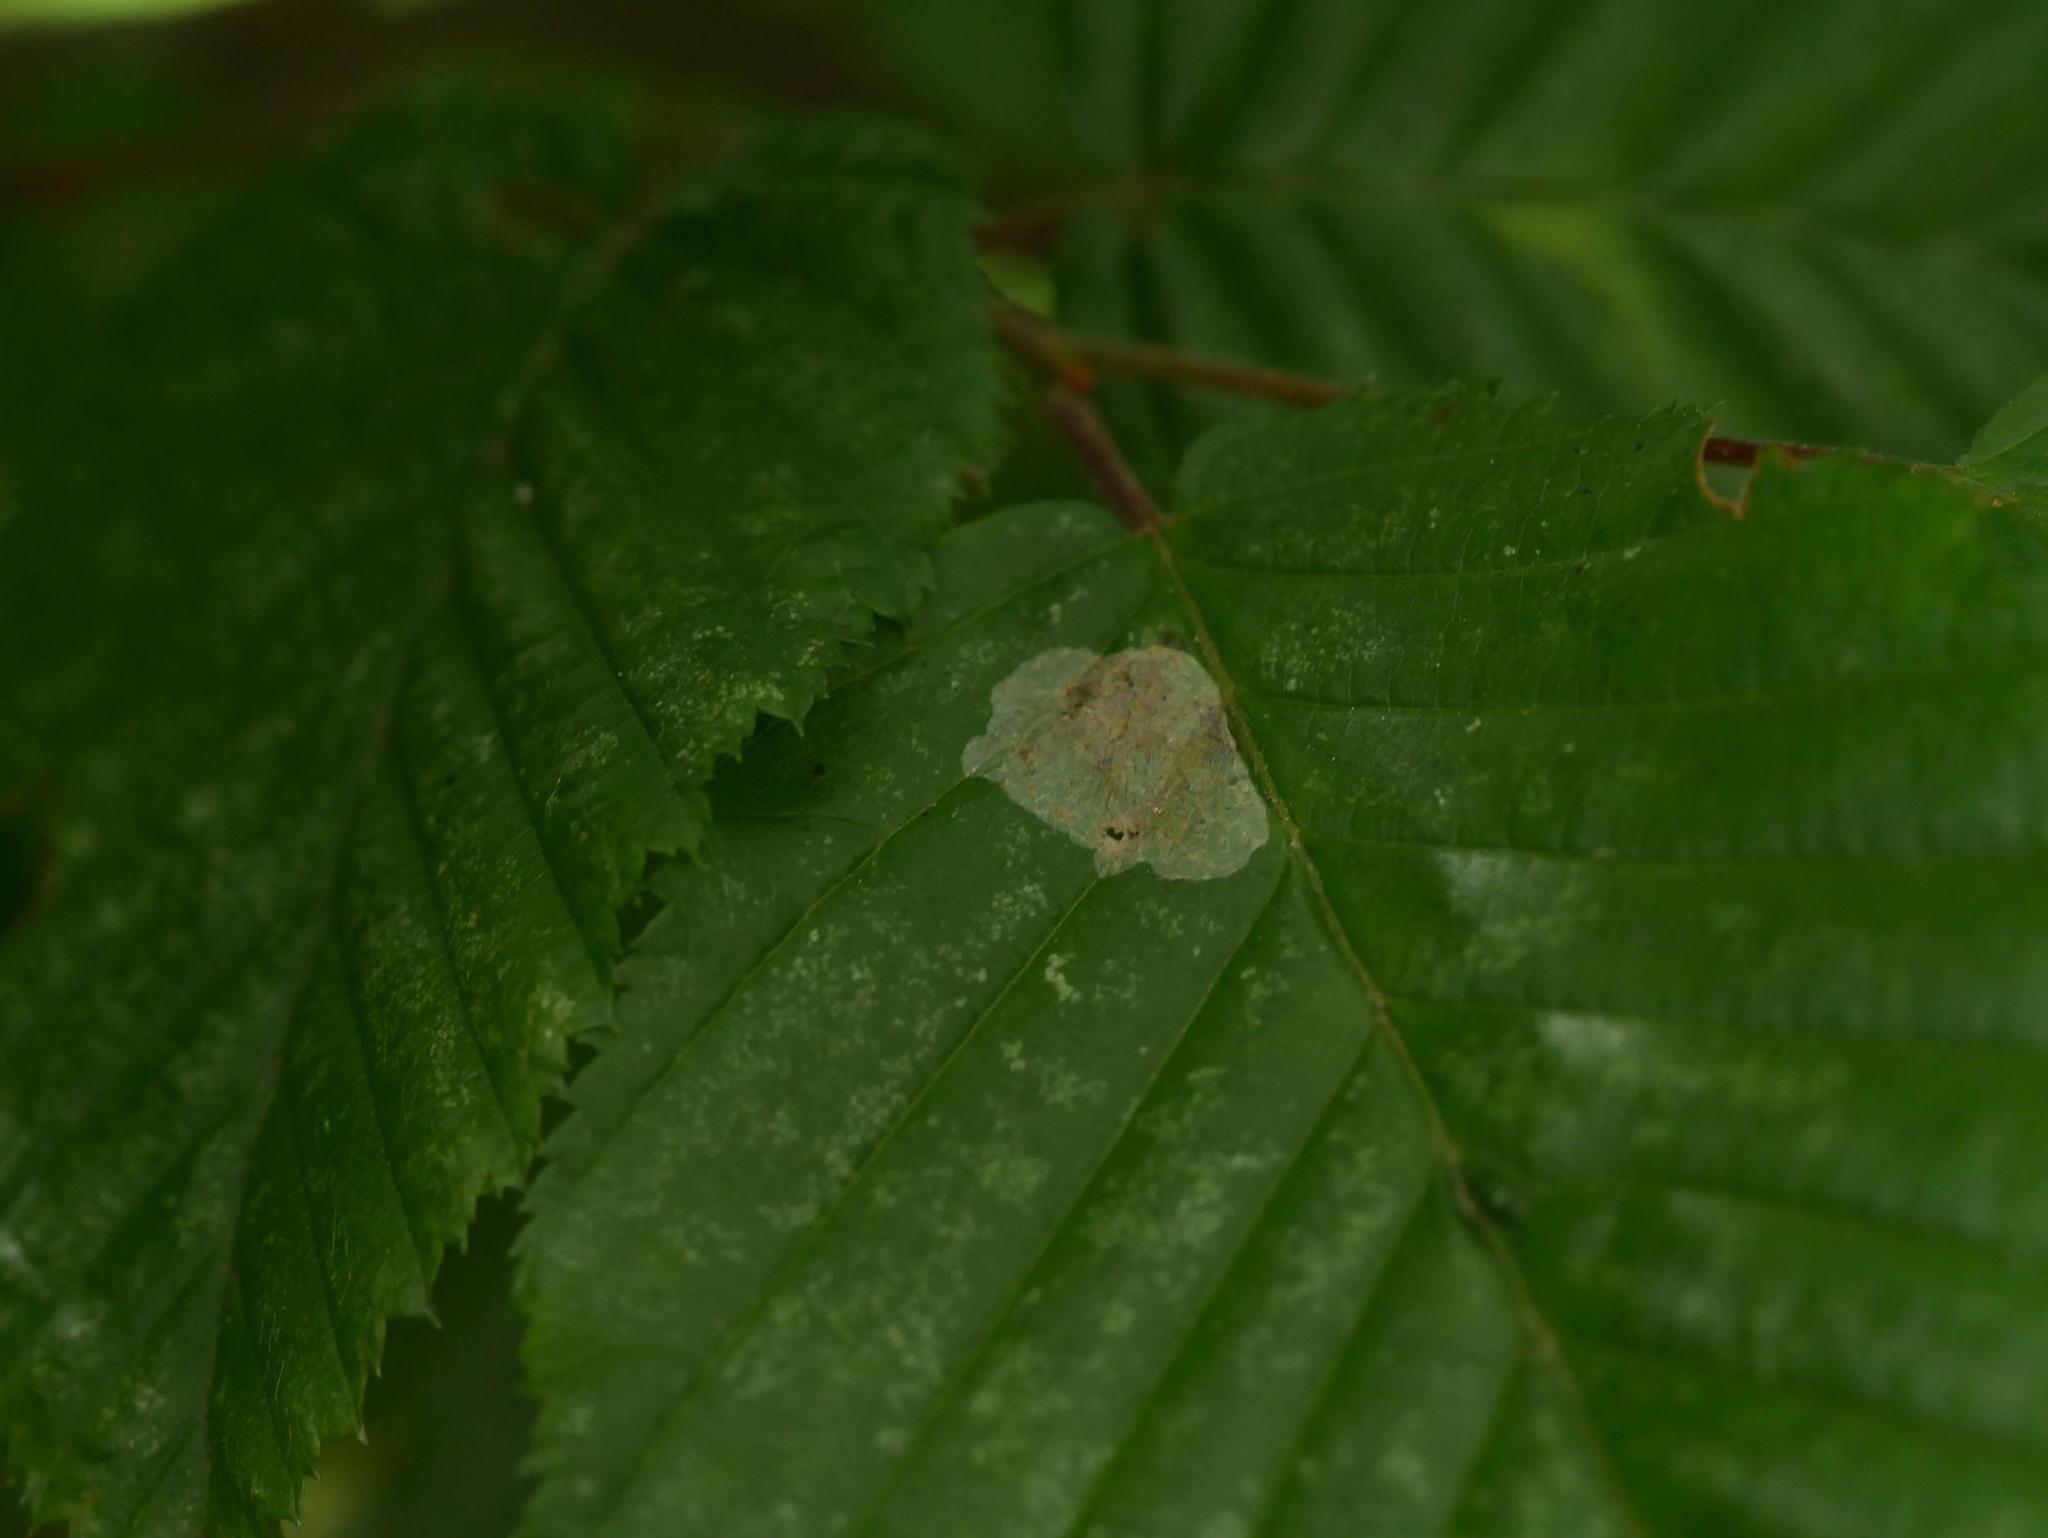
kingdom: Animalia
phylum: Arthropoda
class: Insecta
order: Lepidoptera
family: Gracillariidae
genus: Phyllonorycter
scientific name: Phyllonorycter esperella
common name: Dark hornbeam midget
